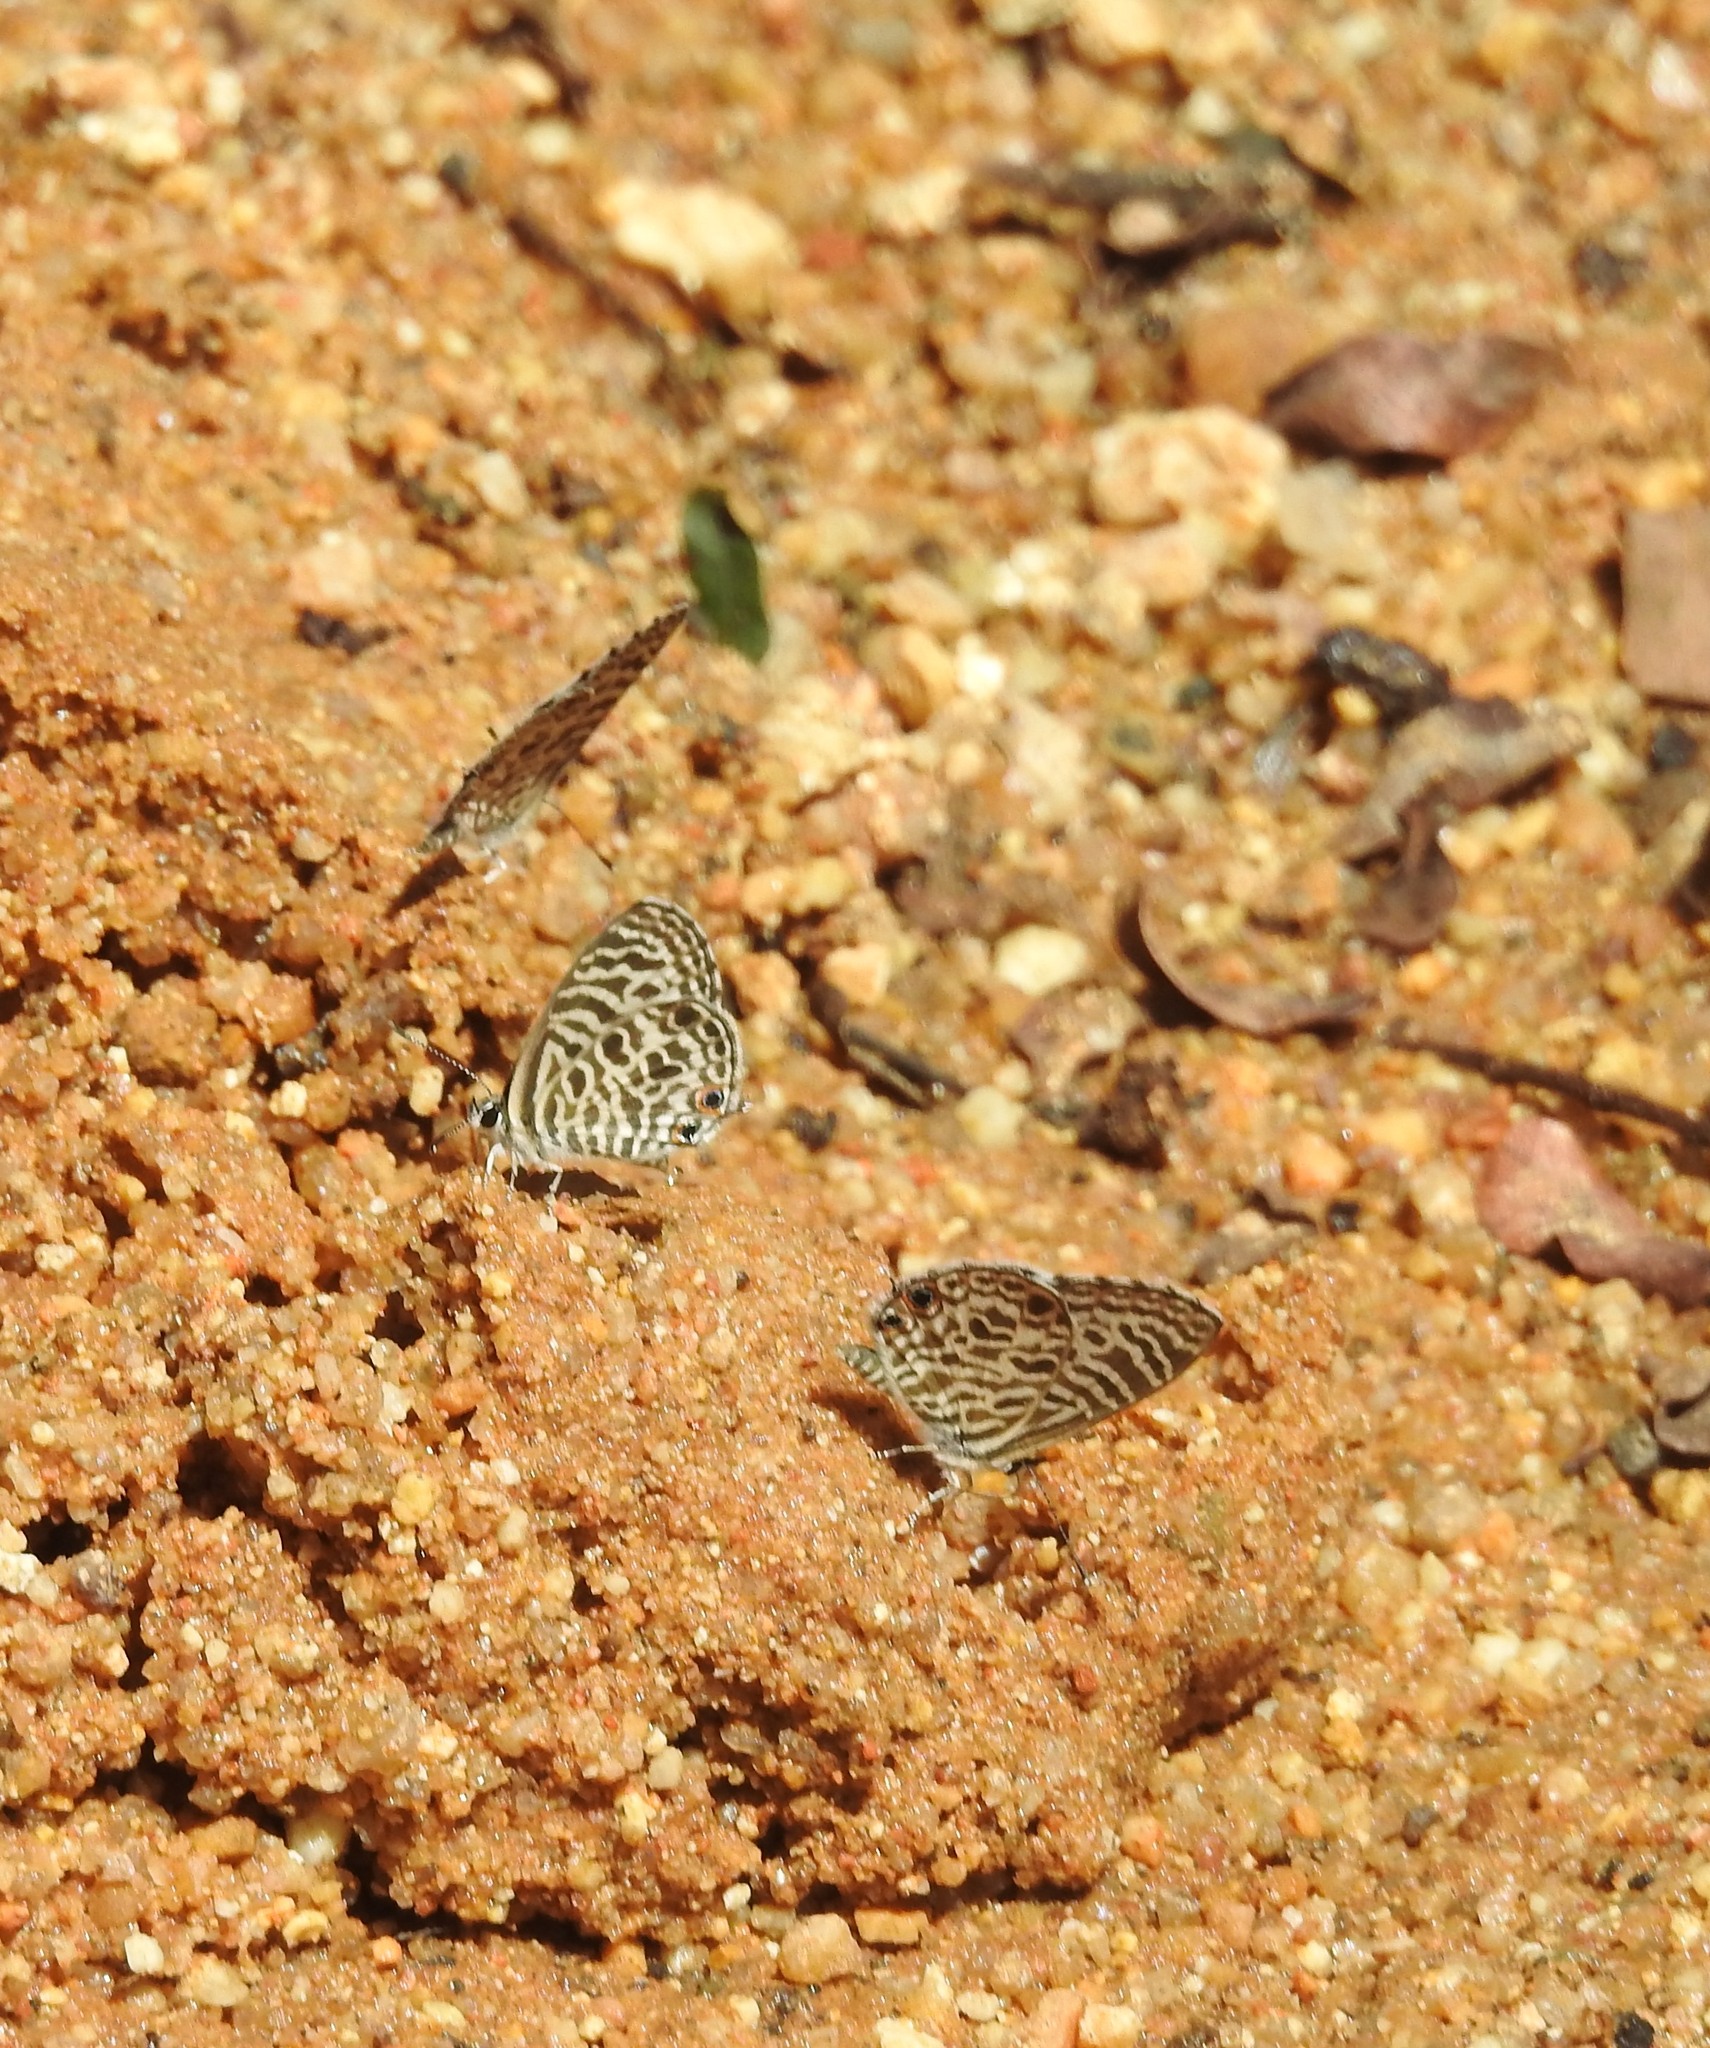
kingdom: Animalia
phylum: Arthropoda
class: Insecta
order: Lepidoptera
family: Lycaenidae
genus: Leptotes
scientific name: Leptotes plinius
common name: Zebra blue
